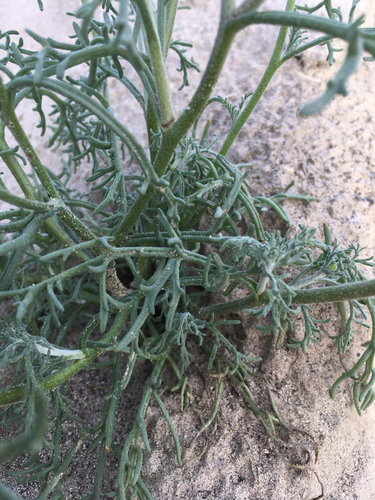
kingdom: Plantae
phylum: Tracheophyta
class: Magnoliopsida
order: Asterales
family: Asteraceae
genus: Chaenactis
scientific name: Chaenactis stevioides
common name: Desert pincushion
